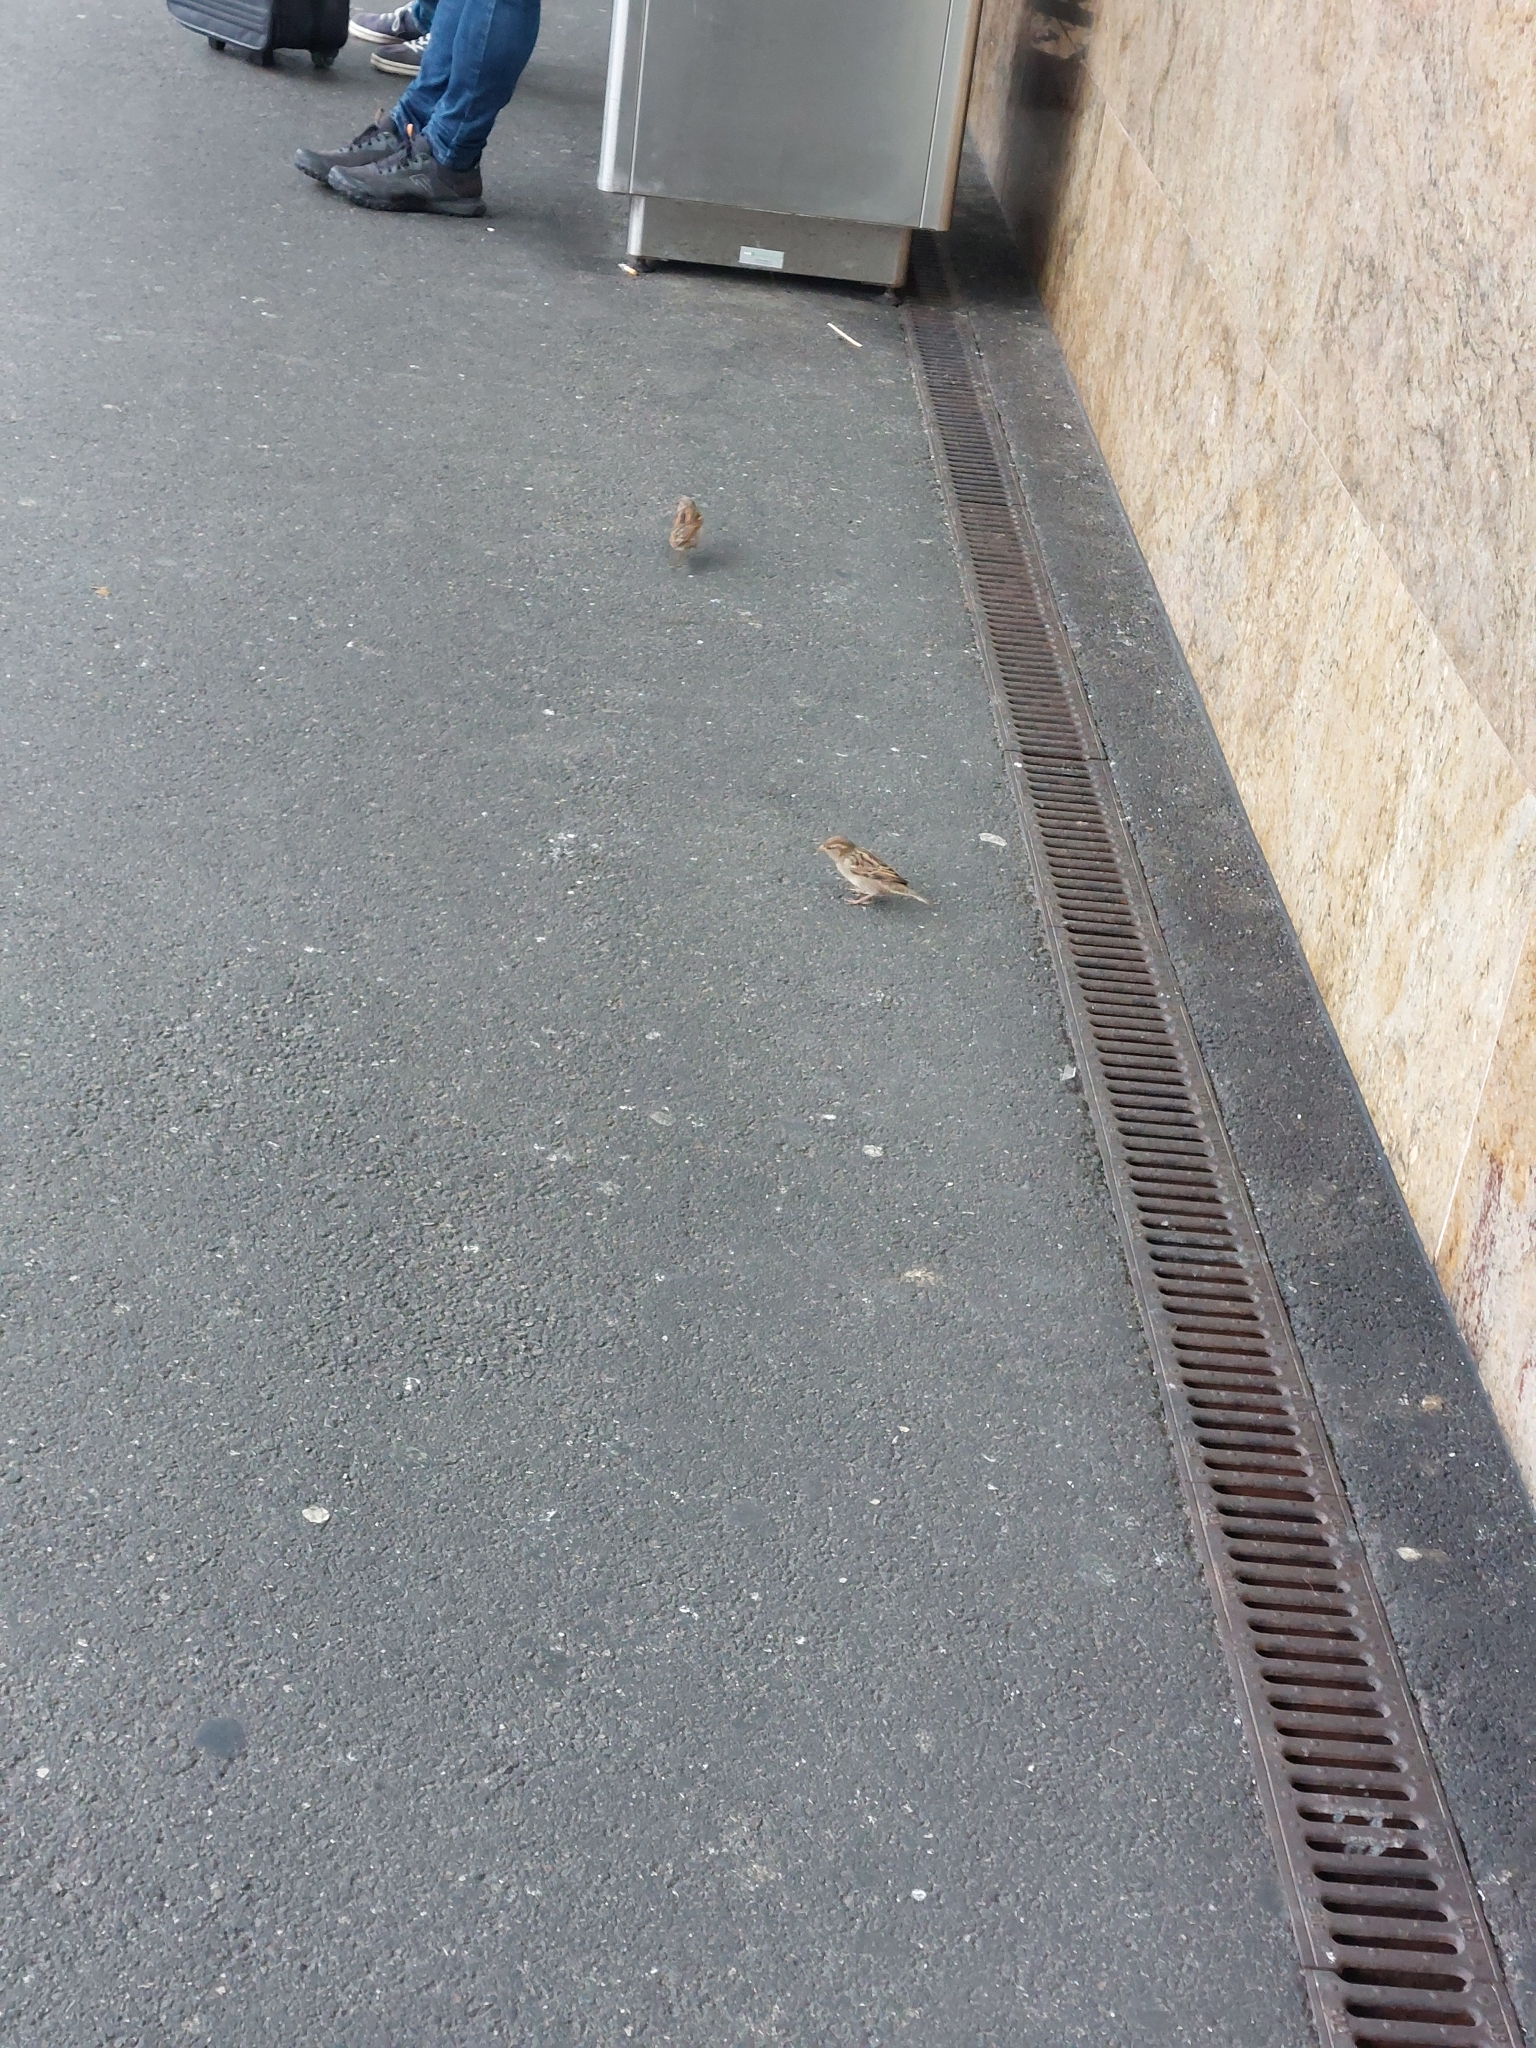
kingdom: Animalia
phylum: Chordata
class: Aves
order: Passeriformes
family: Passeridae
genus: Passer
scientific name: Passer domesticus
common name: House sparrow
